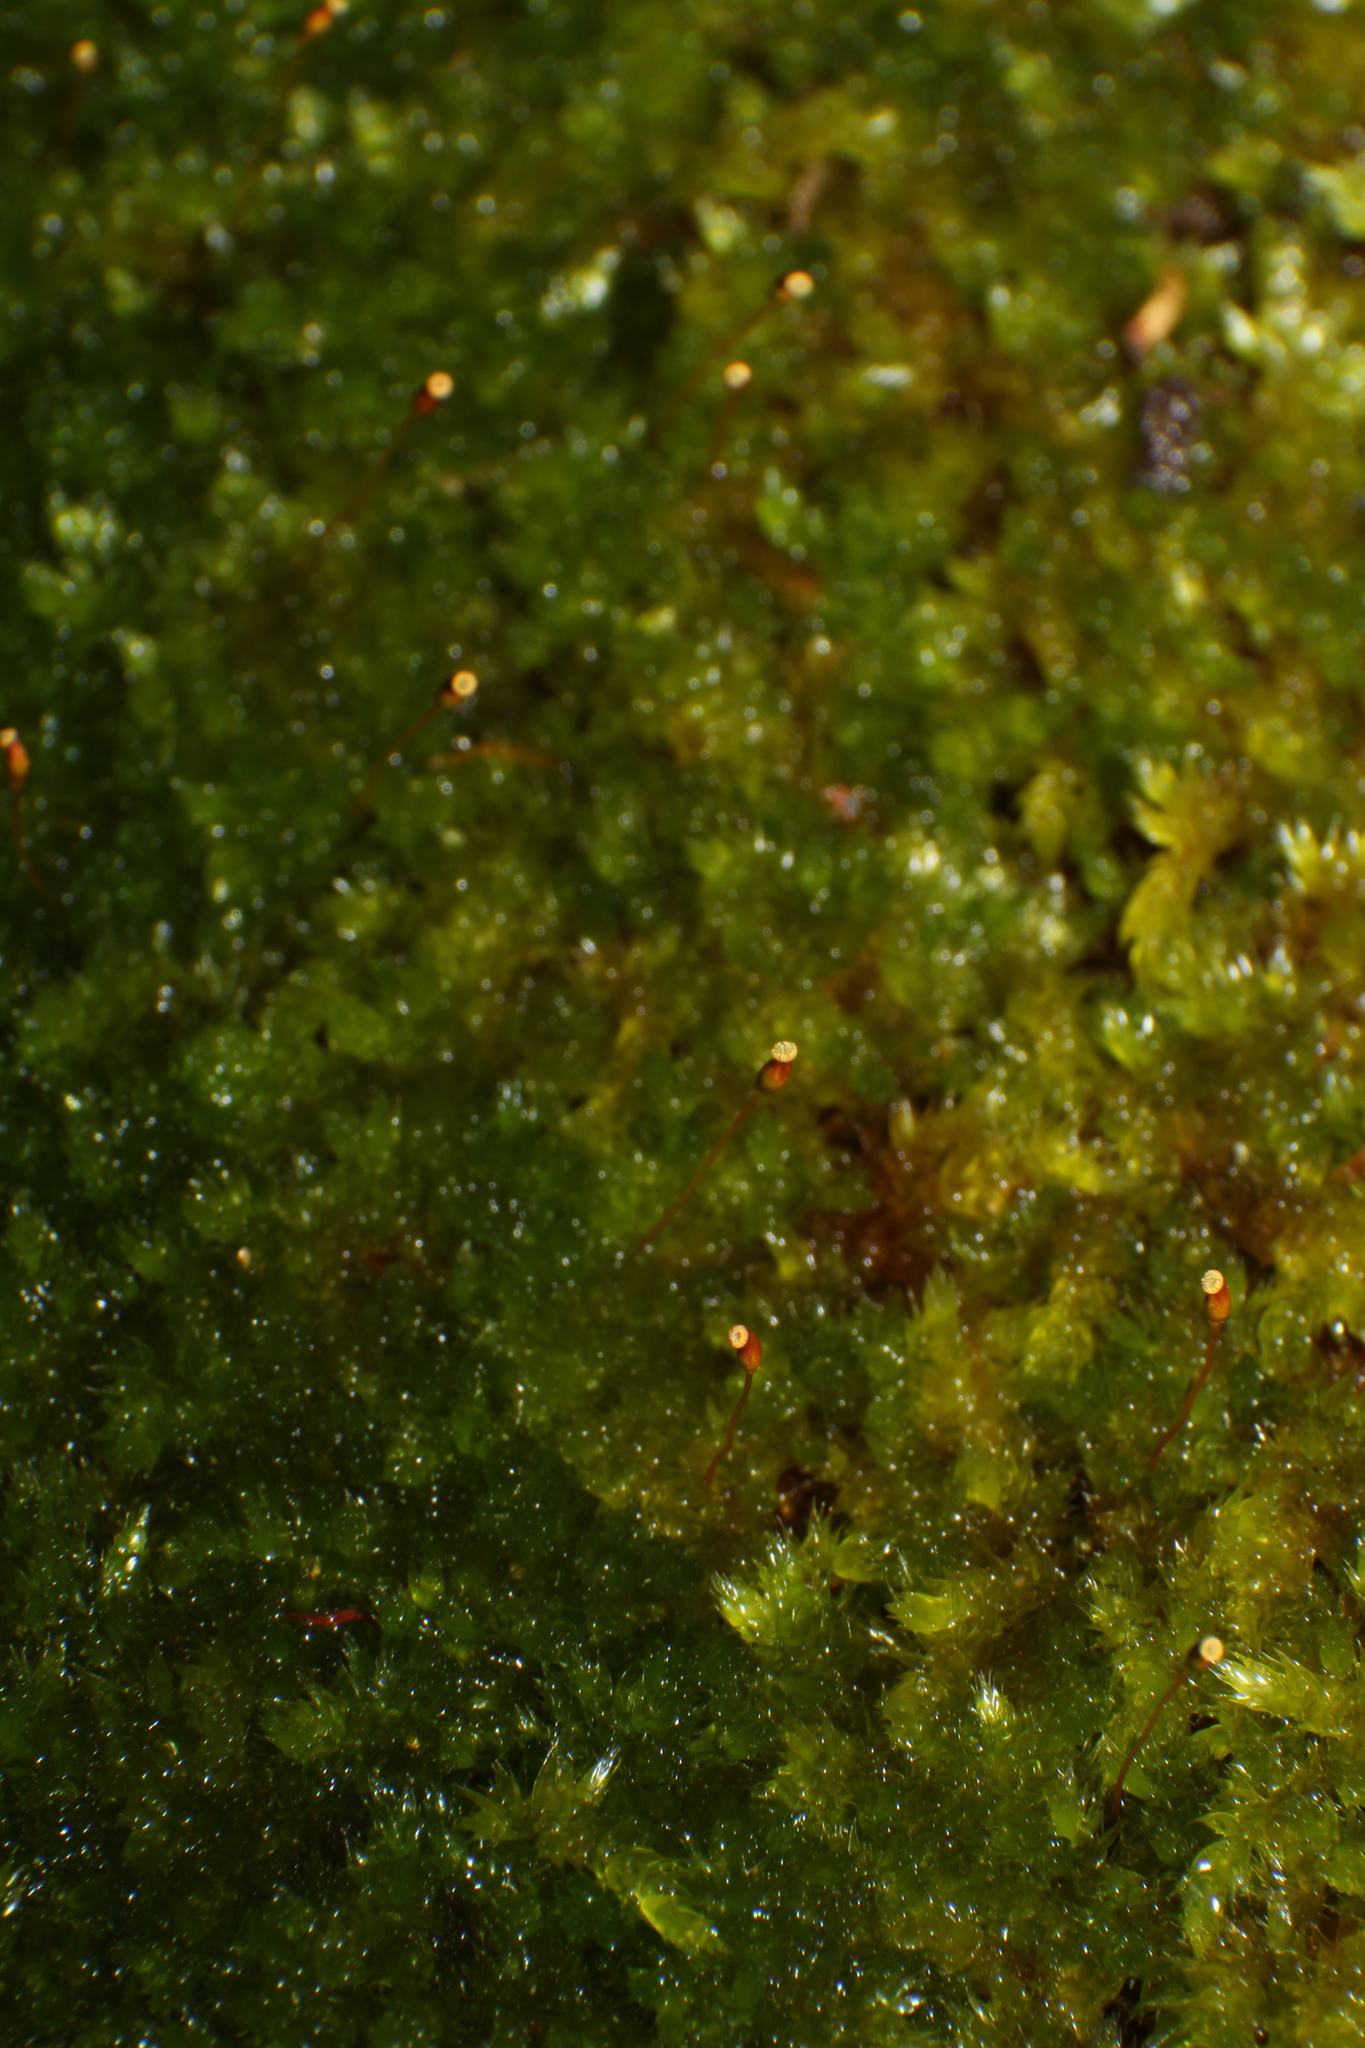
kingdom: Plantae
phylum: Bryophyta
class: Bryopsida
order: Hypnales
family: Sematophyllaceae
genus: Sematophyllum
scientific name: Sematophyllum homomallum
